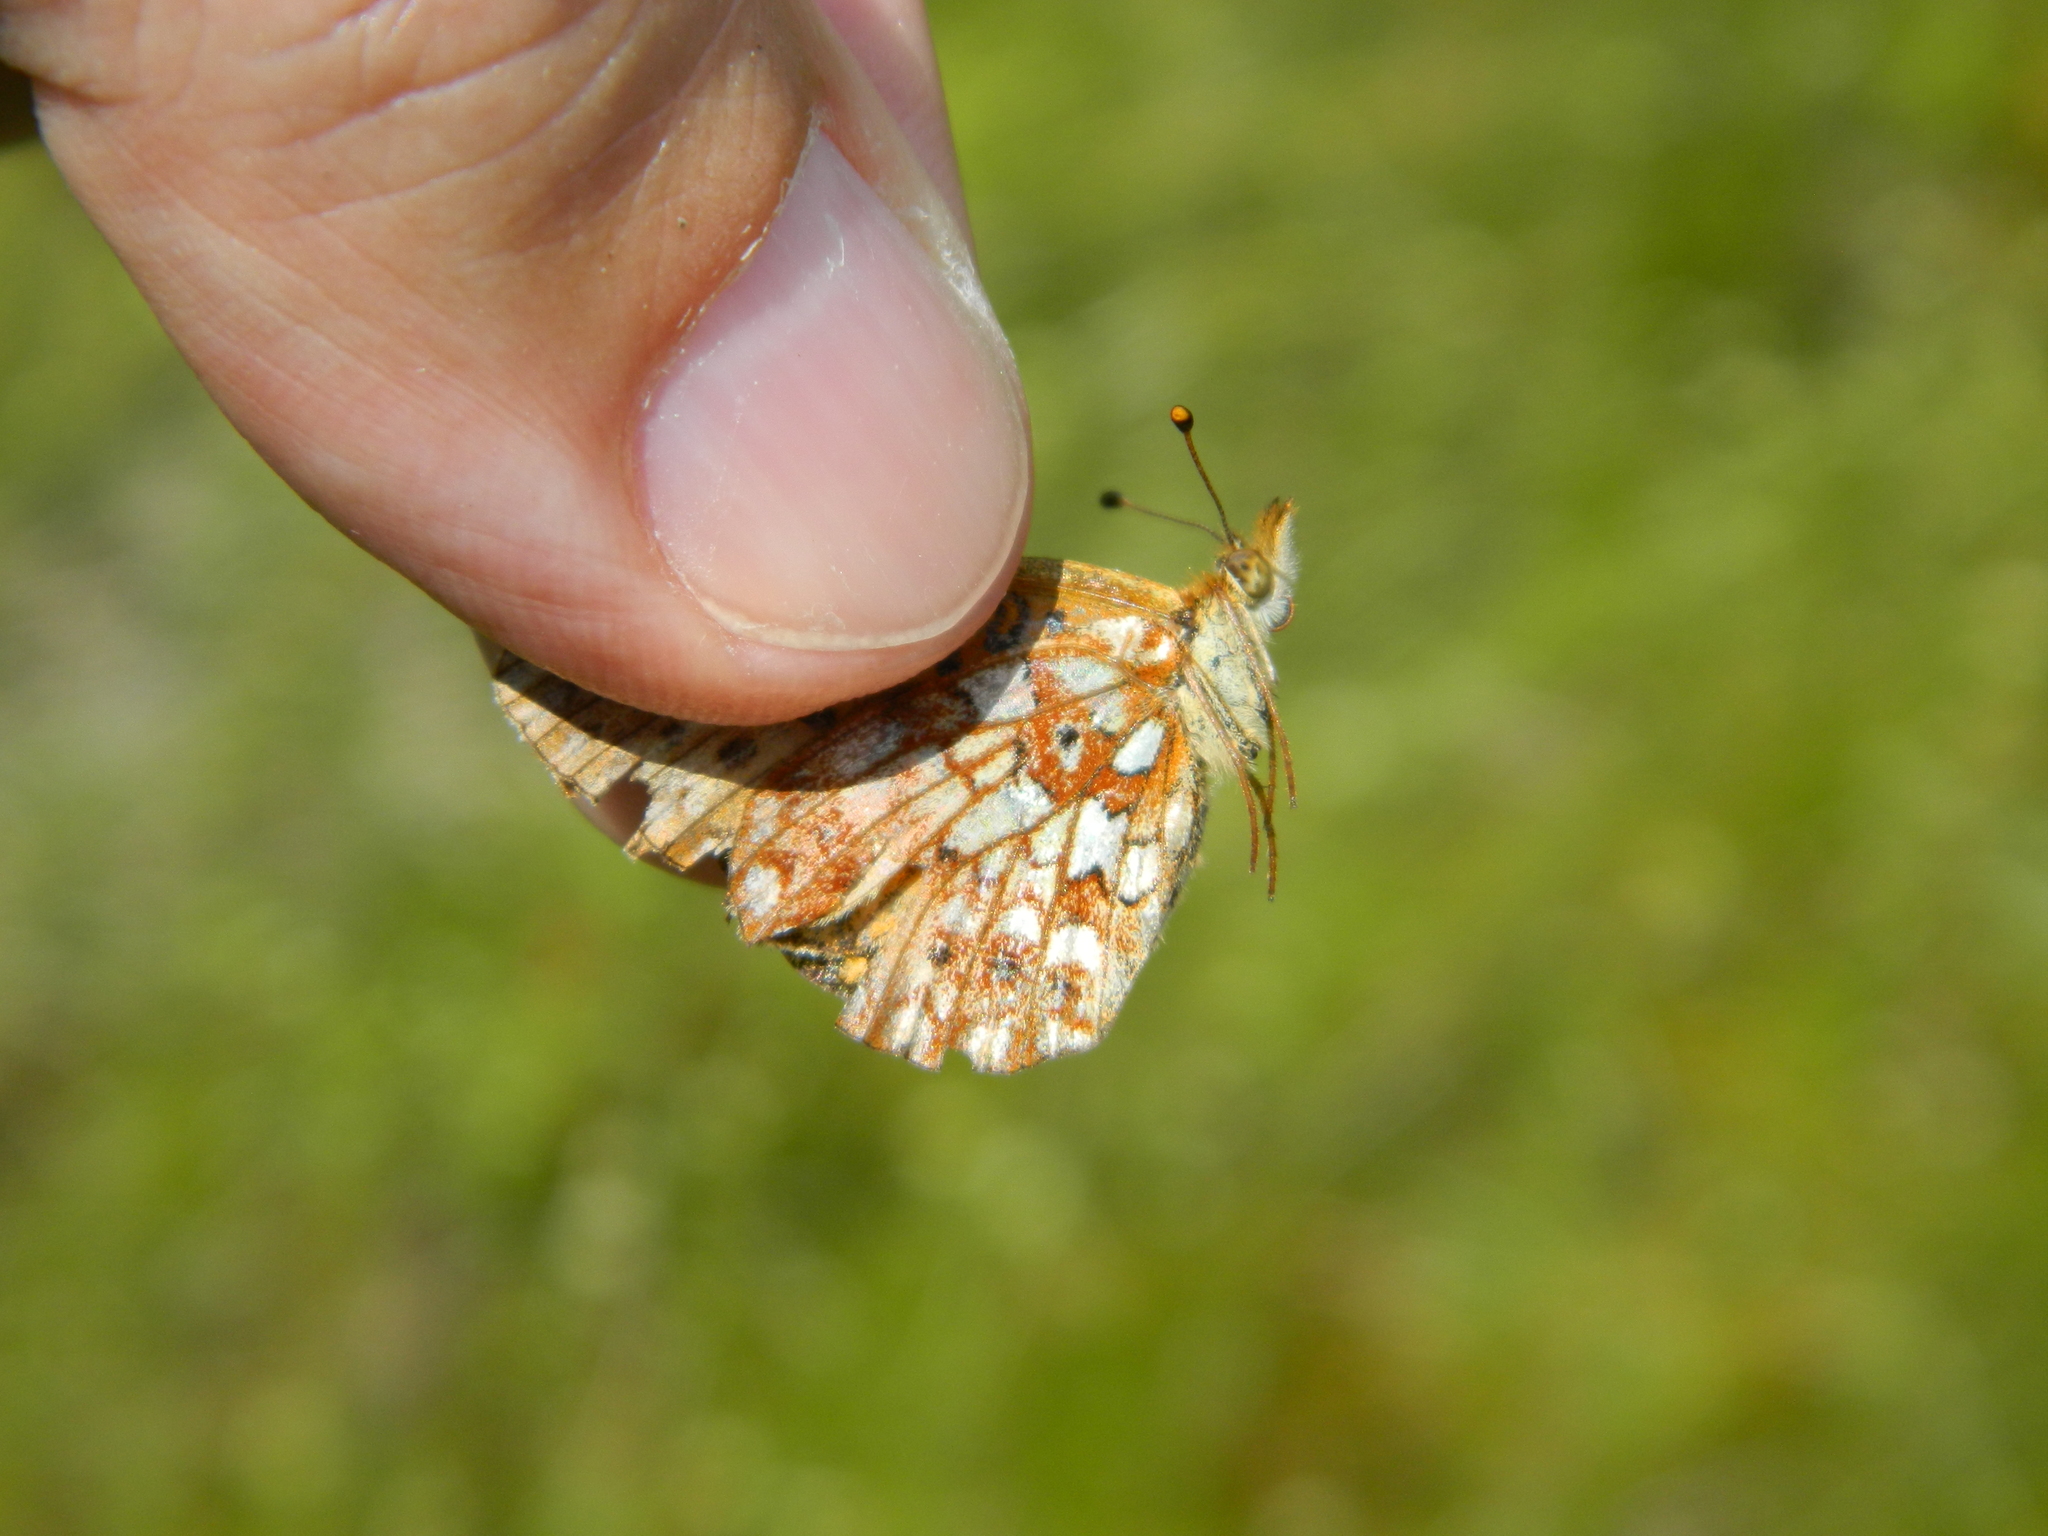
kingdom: Animalia
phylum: Arthropoda
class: Insecta
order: Lepidoptera
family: Nymphalidae
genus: Boloria
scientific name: Boloria
